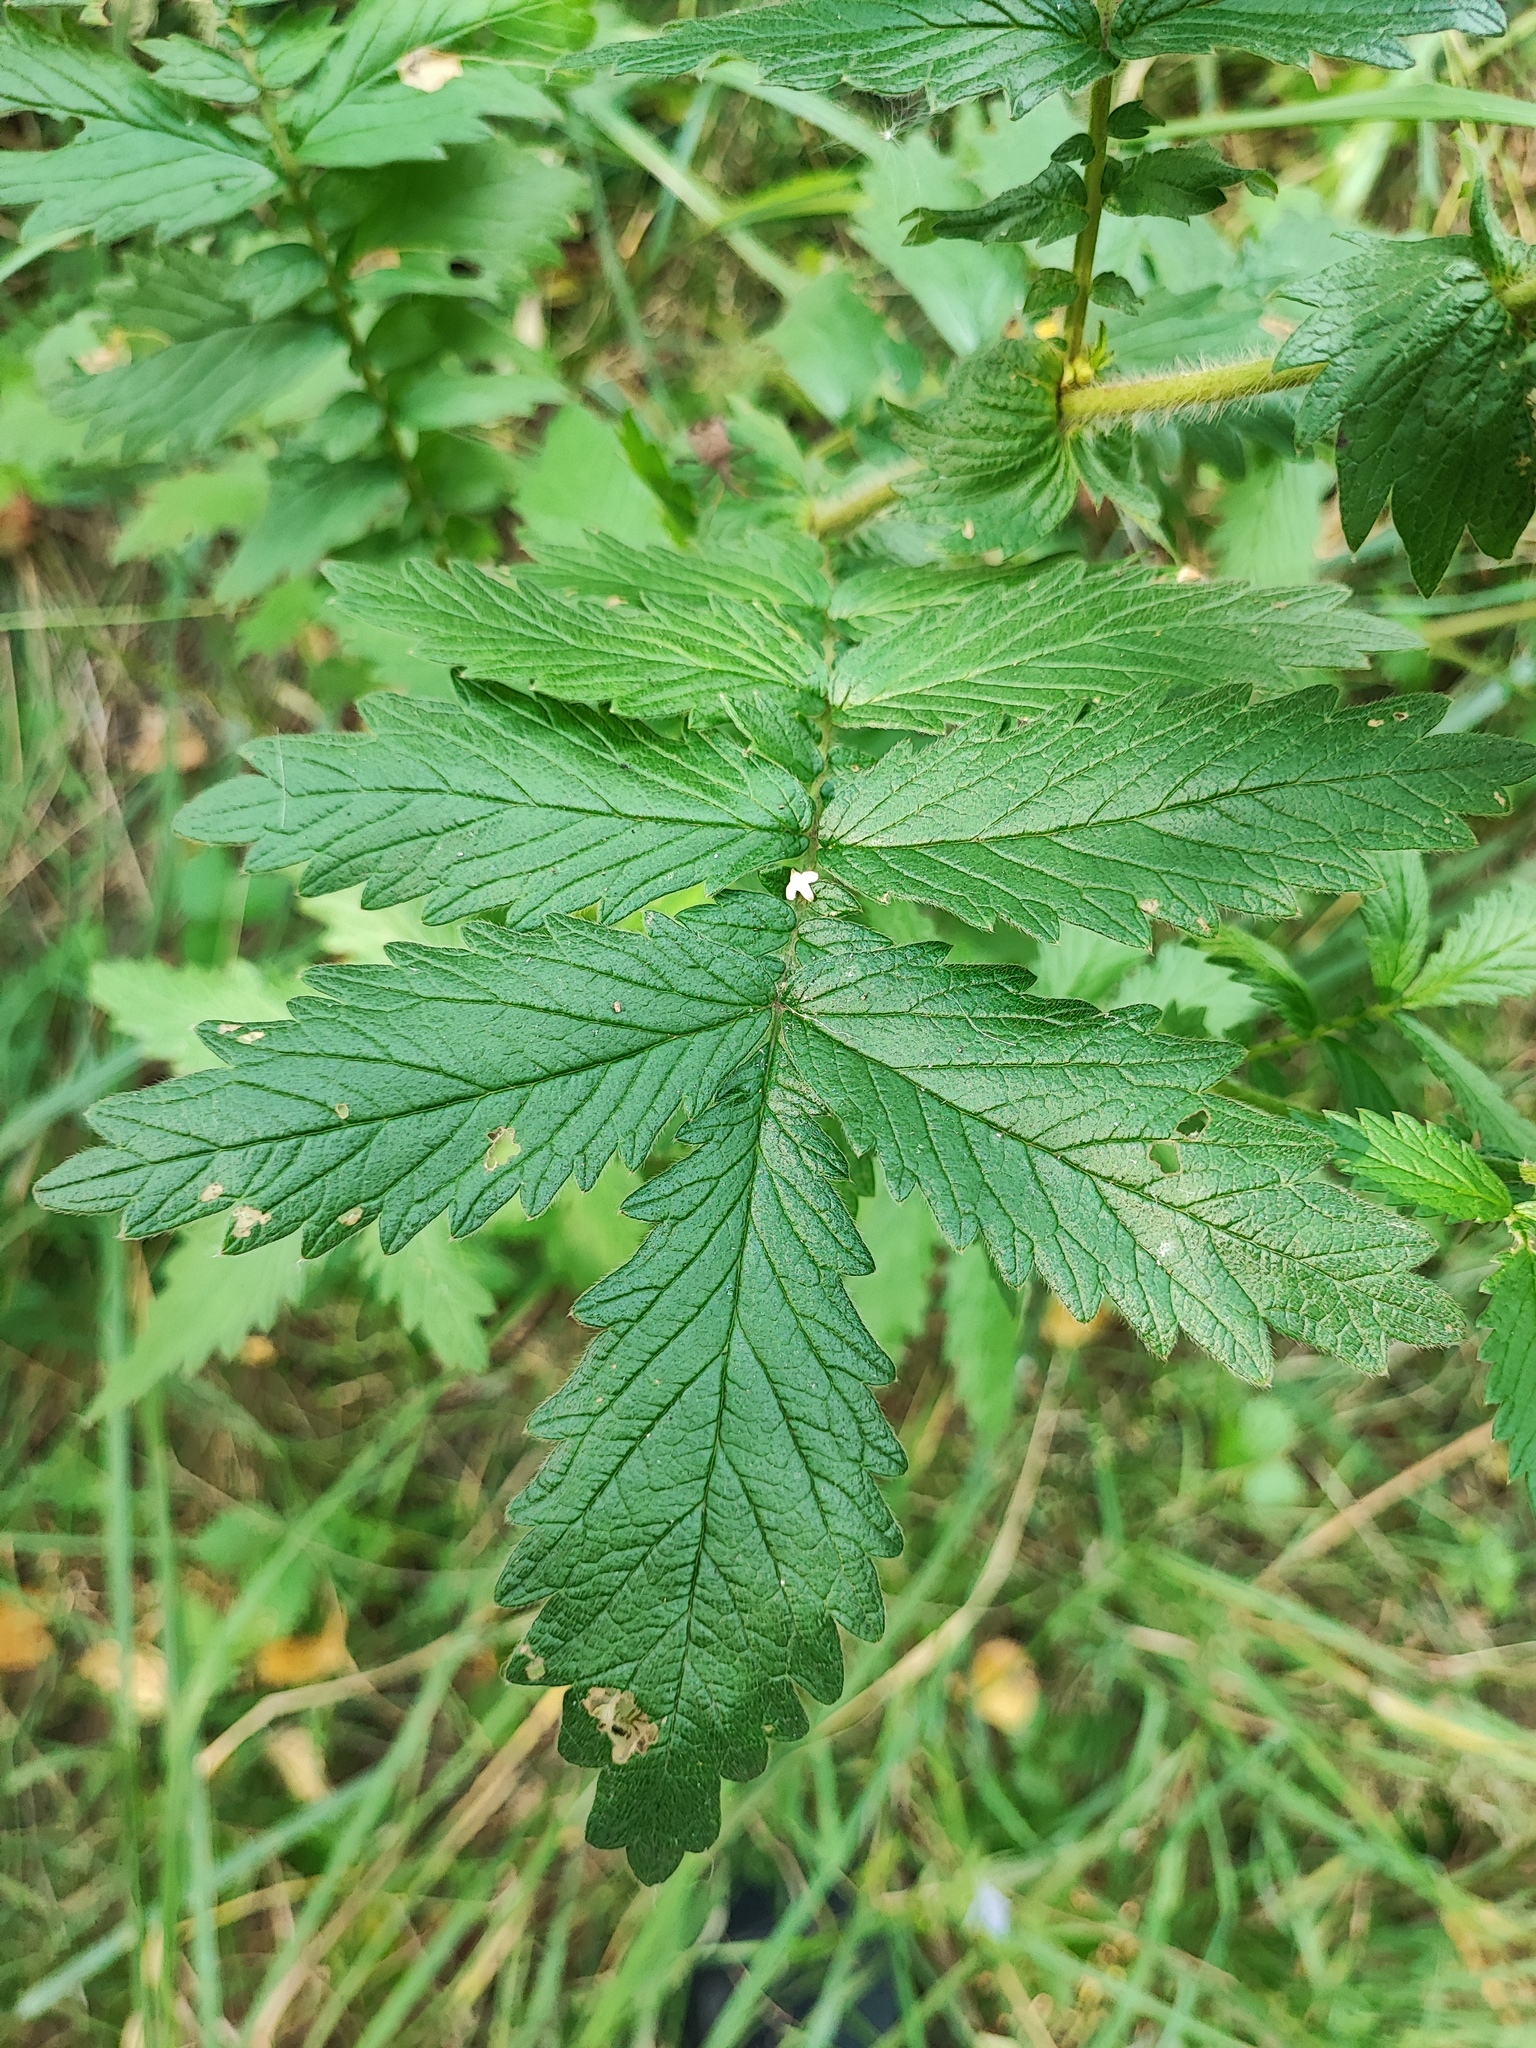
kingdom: Plantae
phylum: Tracheophyta
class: Magnoliopsida
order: Rosales
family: Rosaceae
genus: Agrimonia
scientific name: Agrimonia eupatoria
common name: Agrimony
